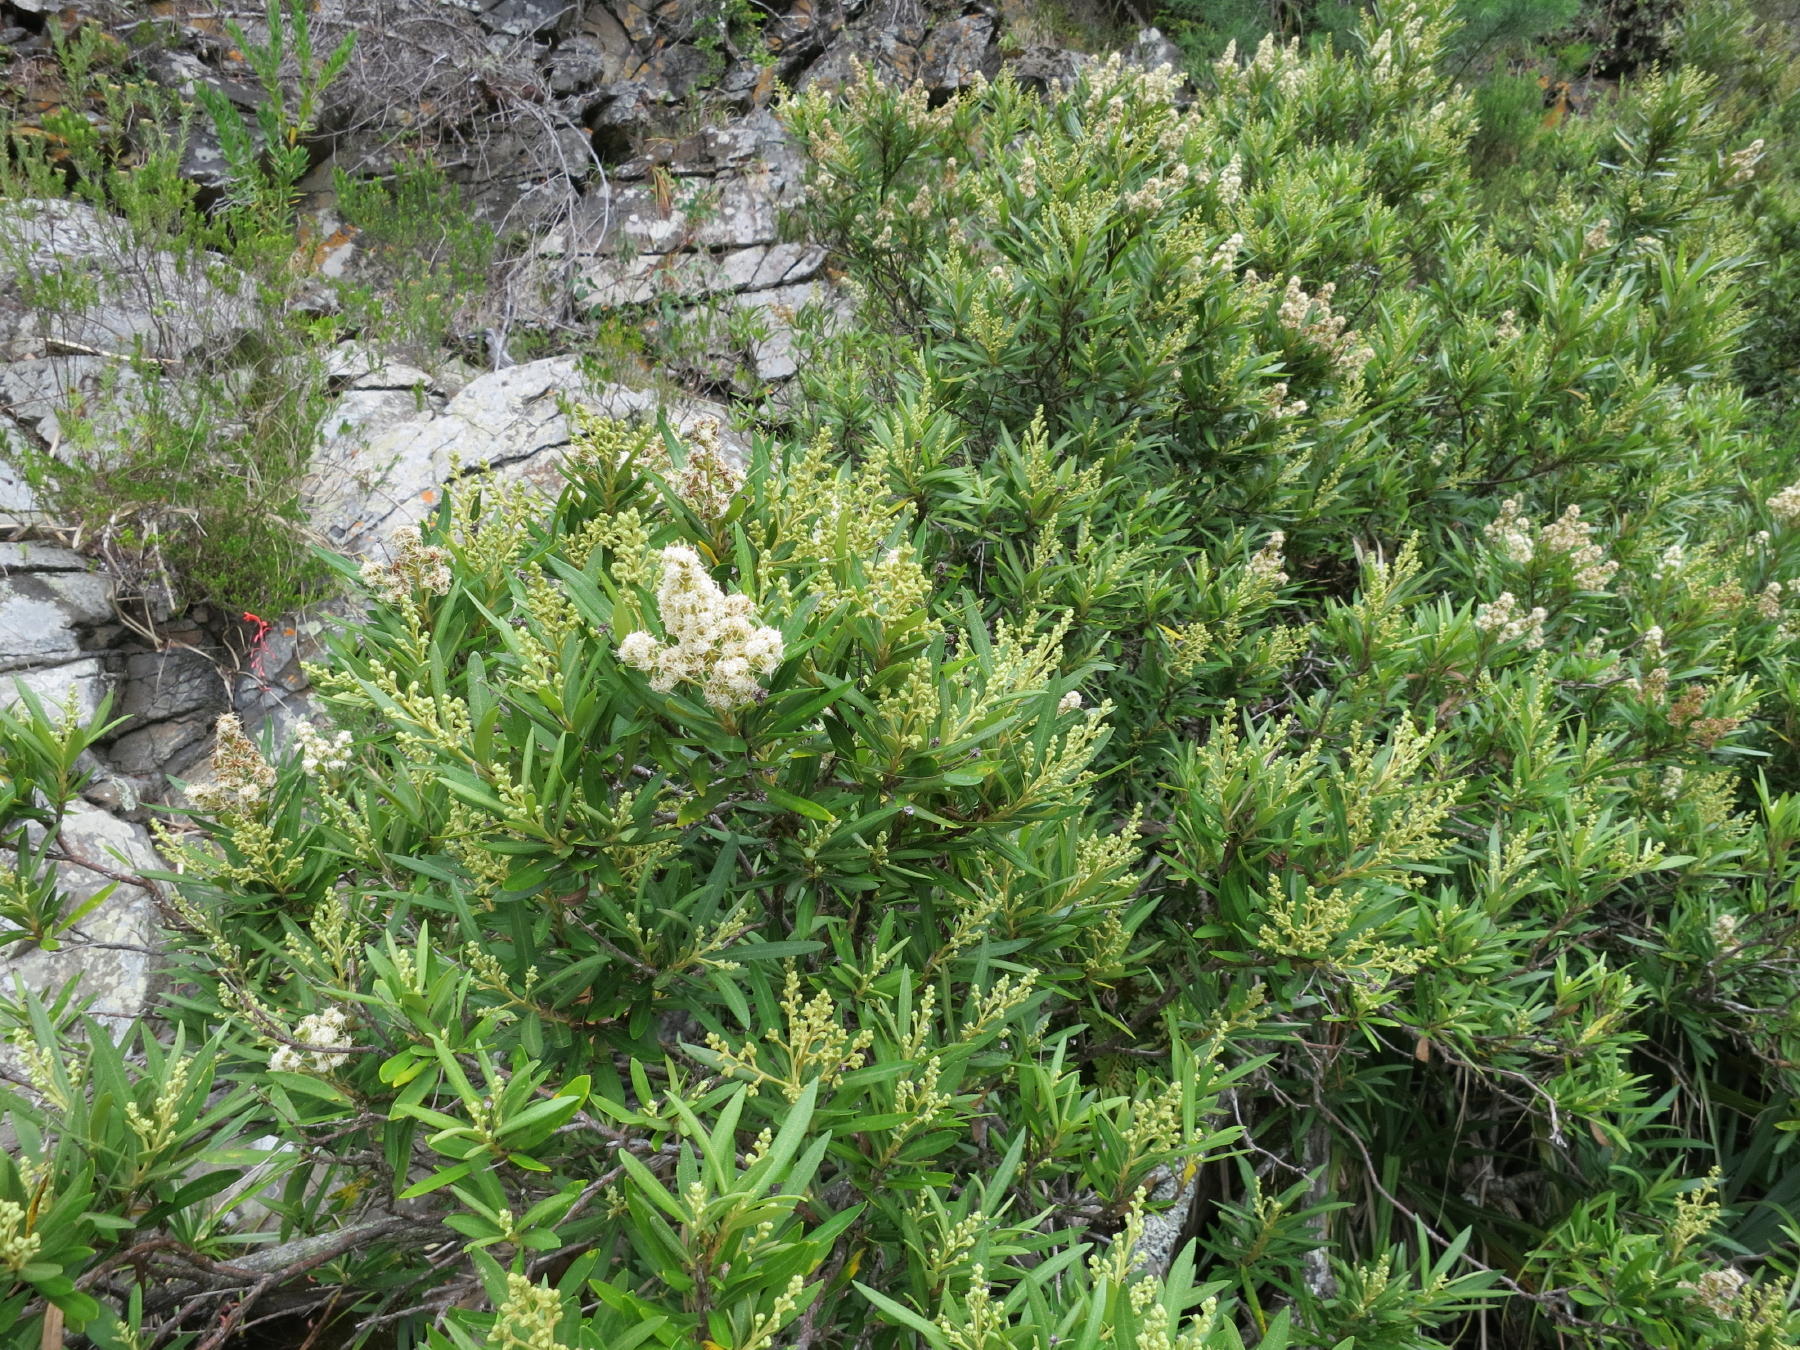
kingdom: Plantae
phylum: Tracheophyta
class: Magnoliopsida
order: Asterales
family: Asteraceae
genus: Brachylaena
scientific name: Brachylaena neriifolia
